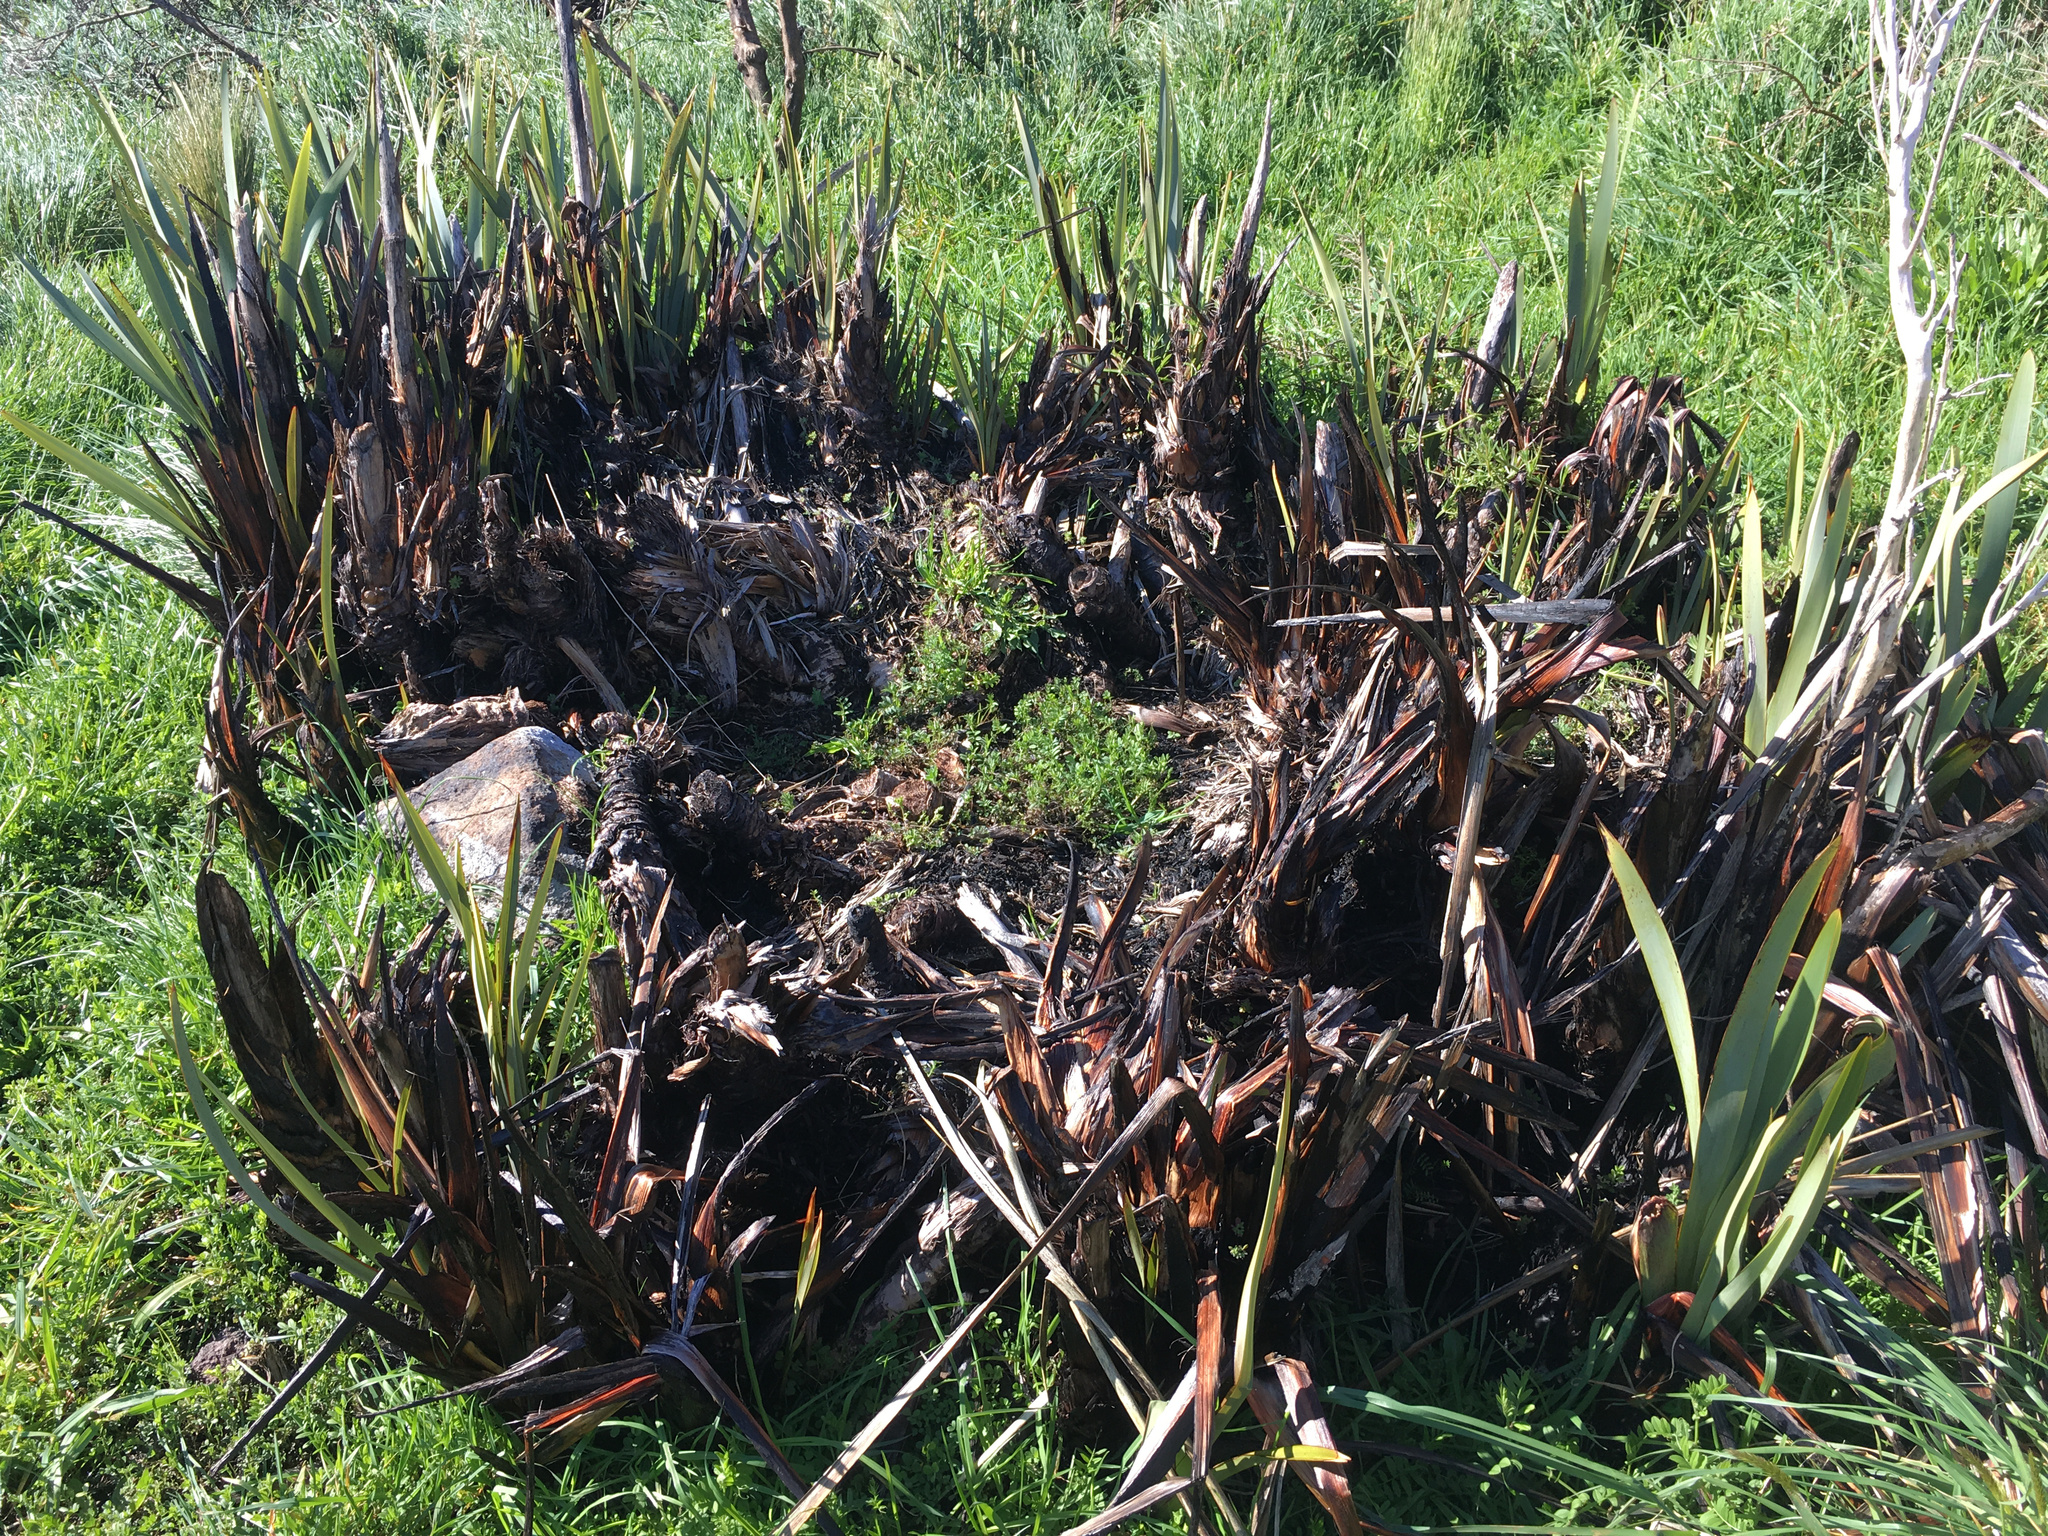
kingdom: Plantae
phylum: Tracheophyta
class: Liliopsida
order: Asparagales
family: Asphodelaceae
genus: Phormium
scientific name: Phormium tenax
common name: New zealand flax
